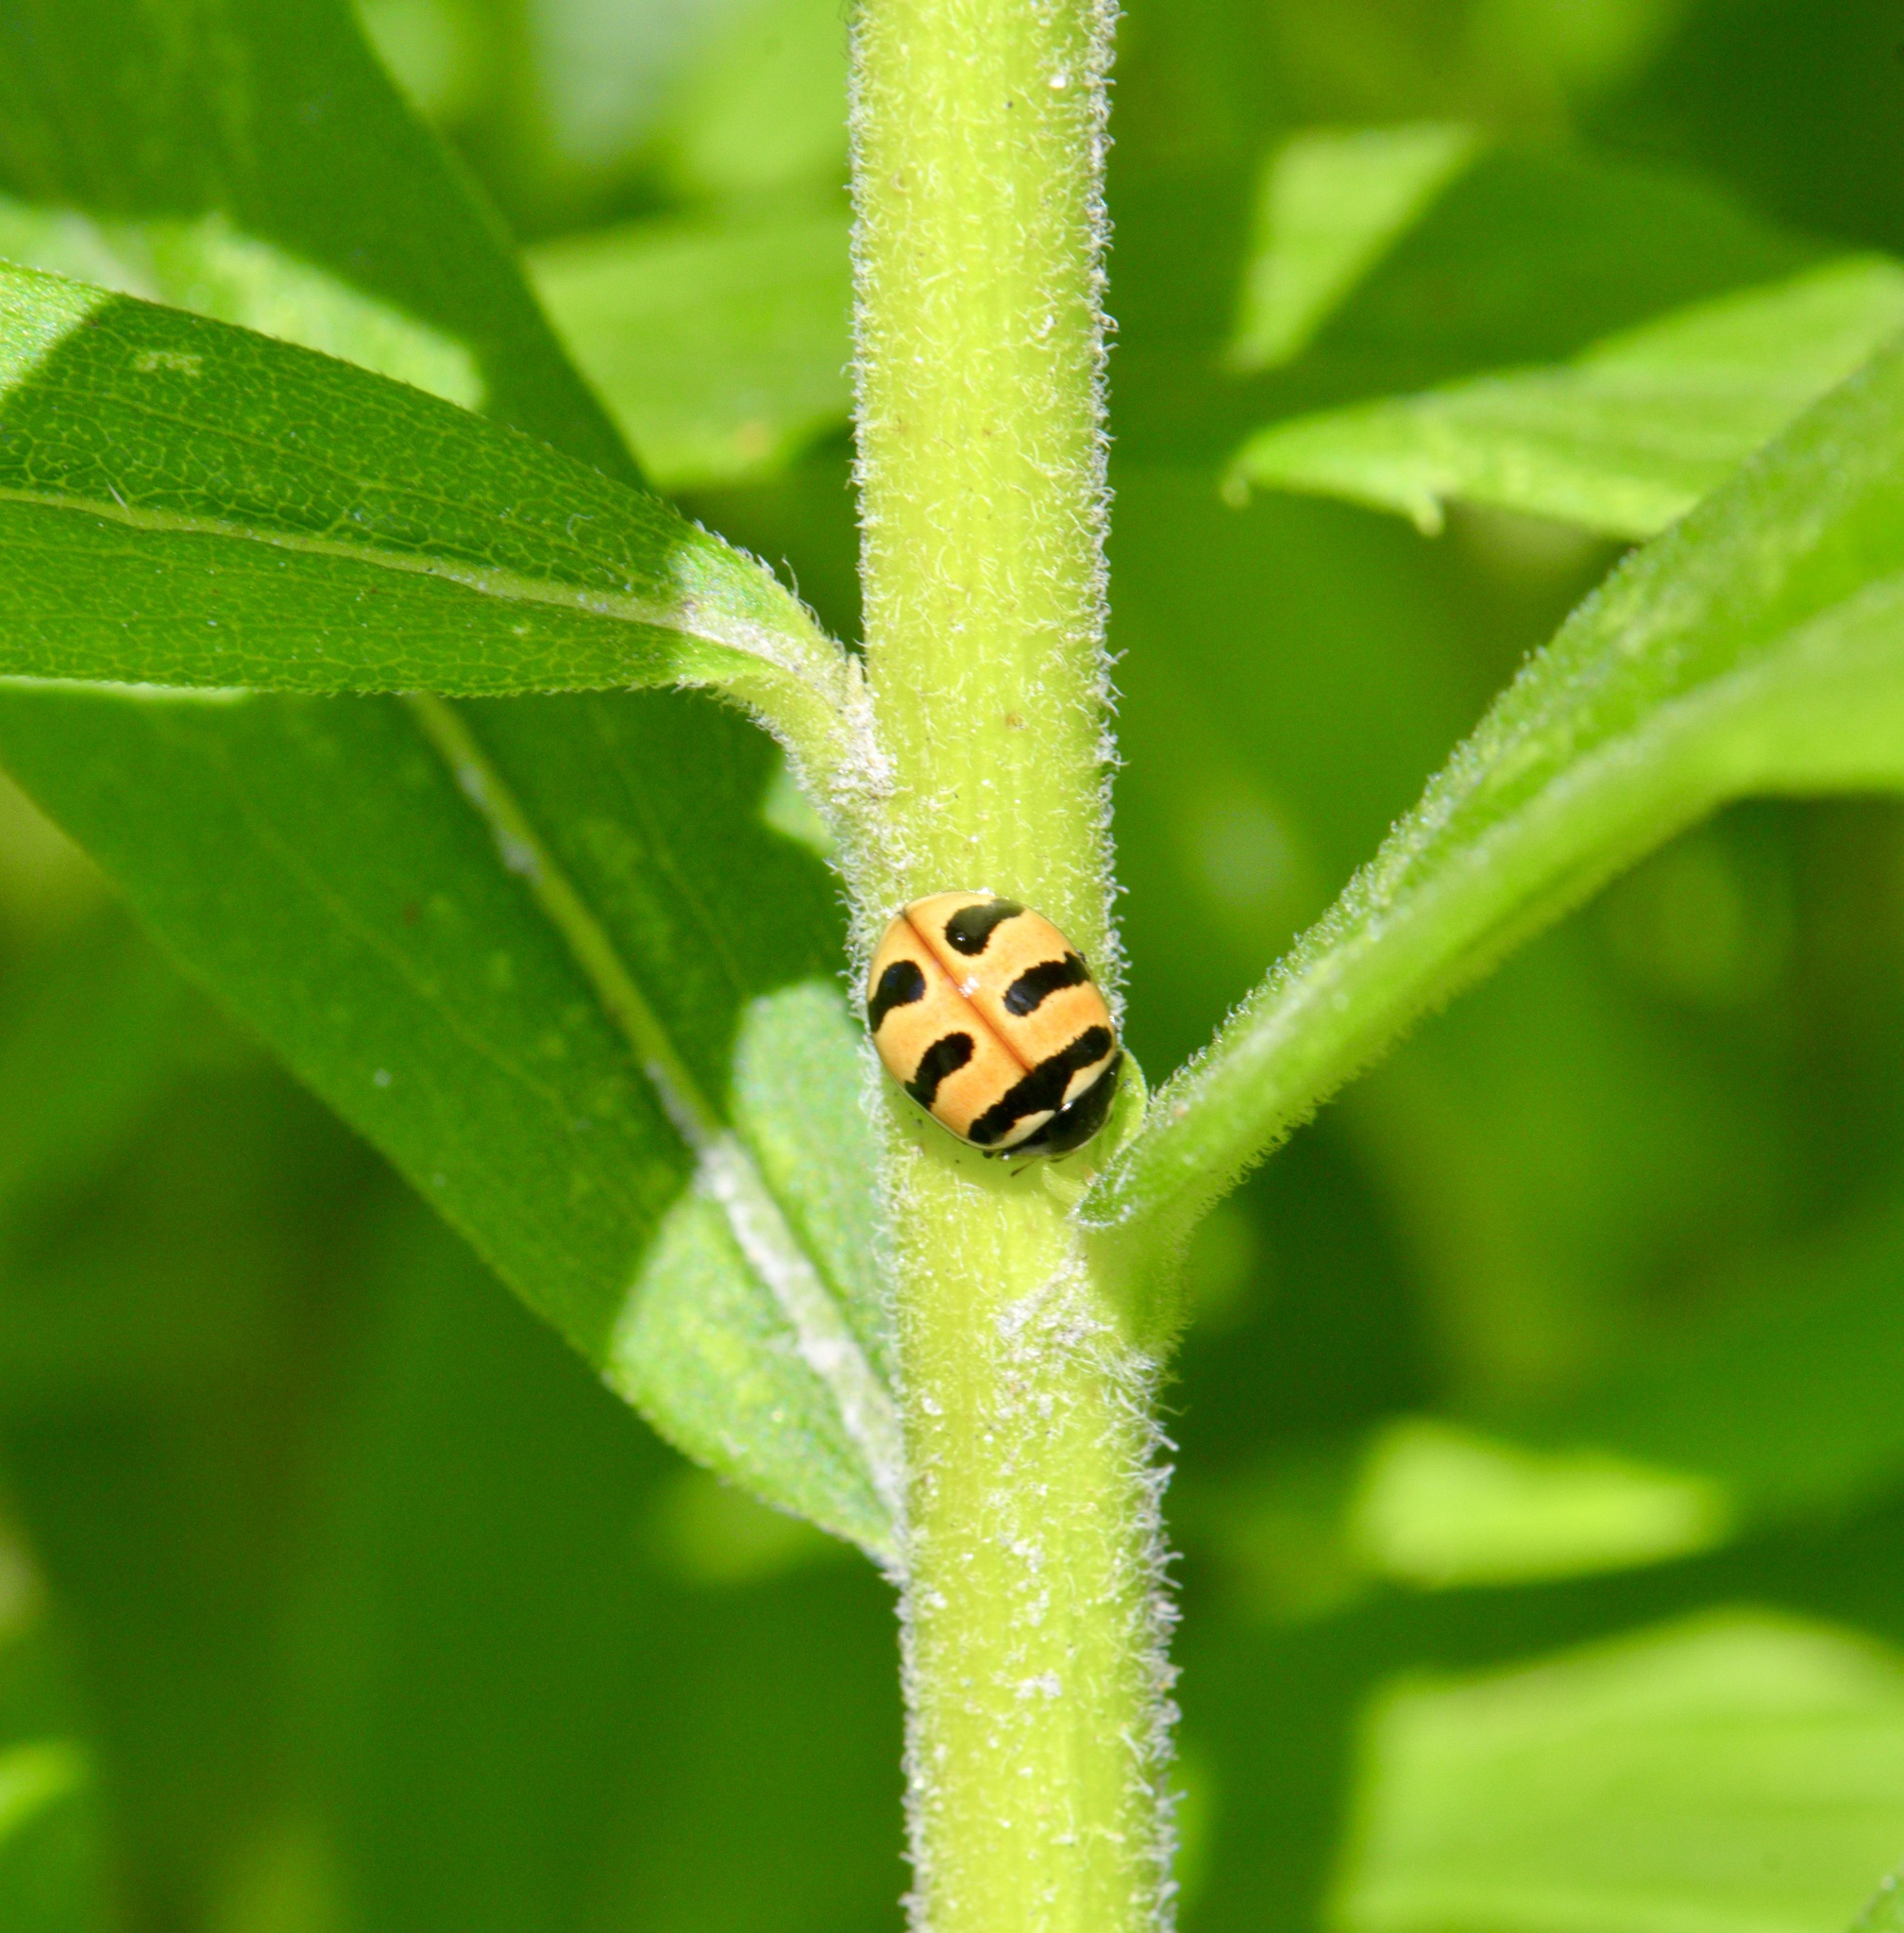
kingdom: Animalia
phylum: Arthropoda
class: Insecta
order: Coleoptera
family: Coccinellidae
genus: Coccinella
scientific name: Coccinella trifasciata
